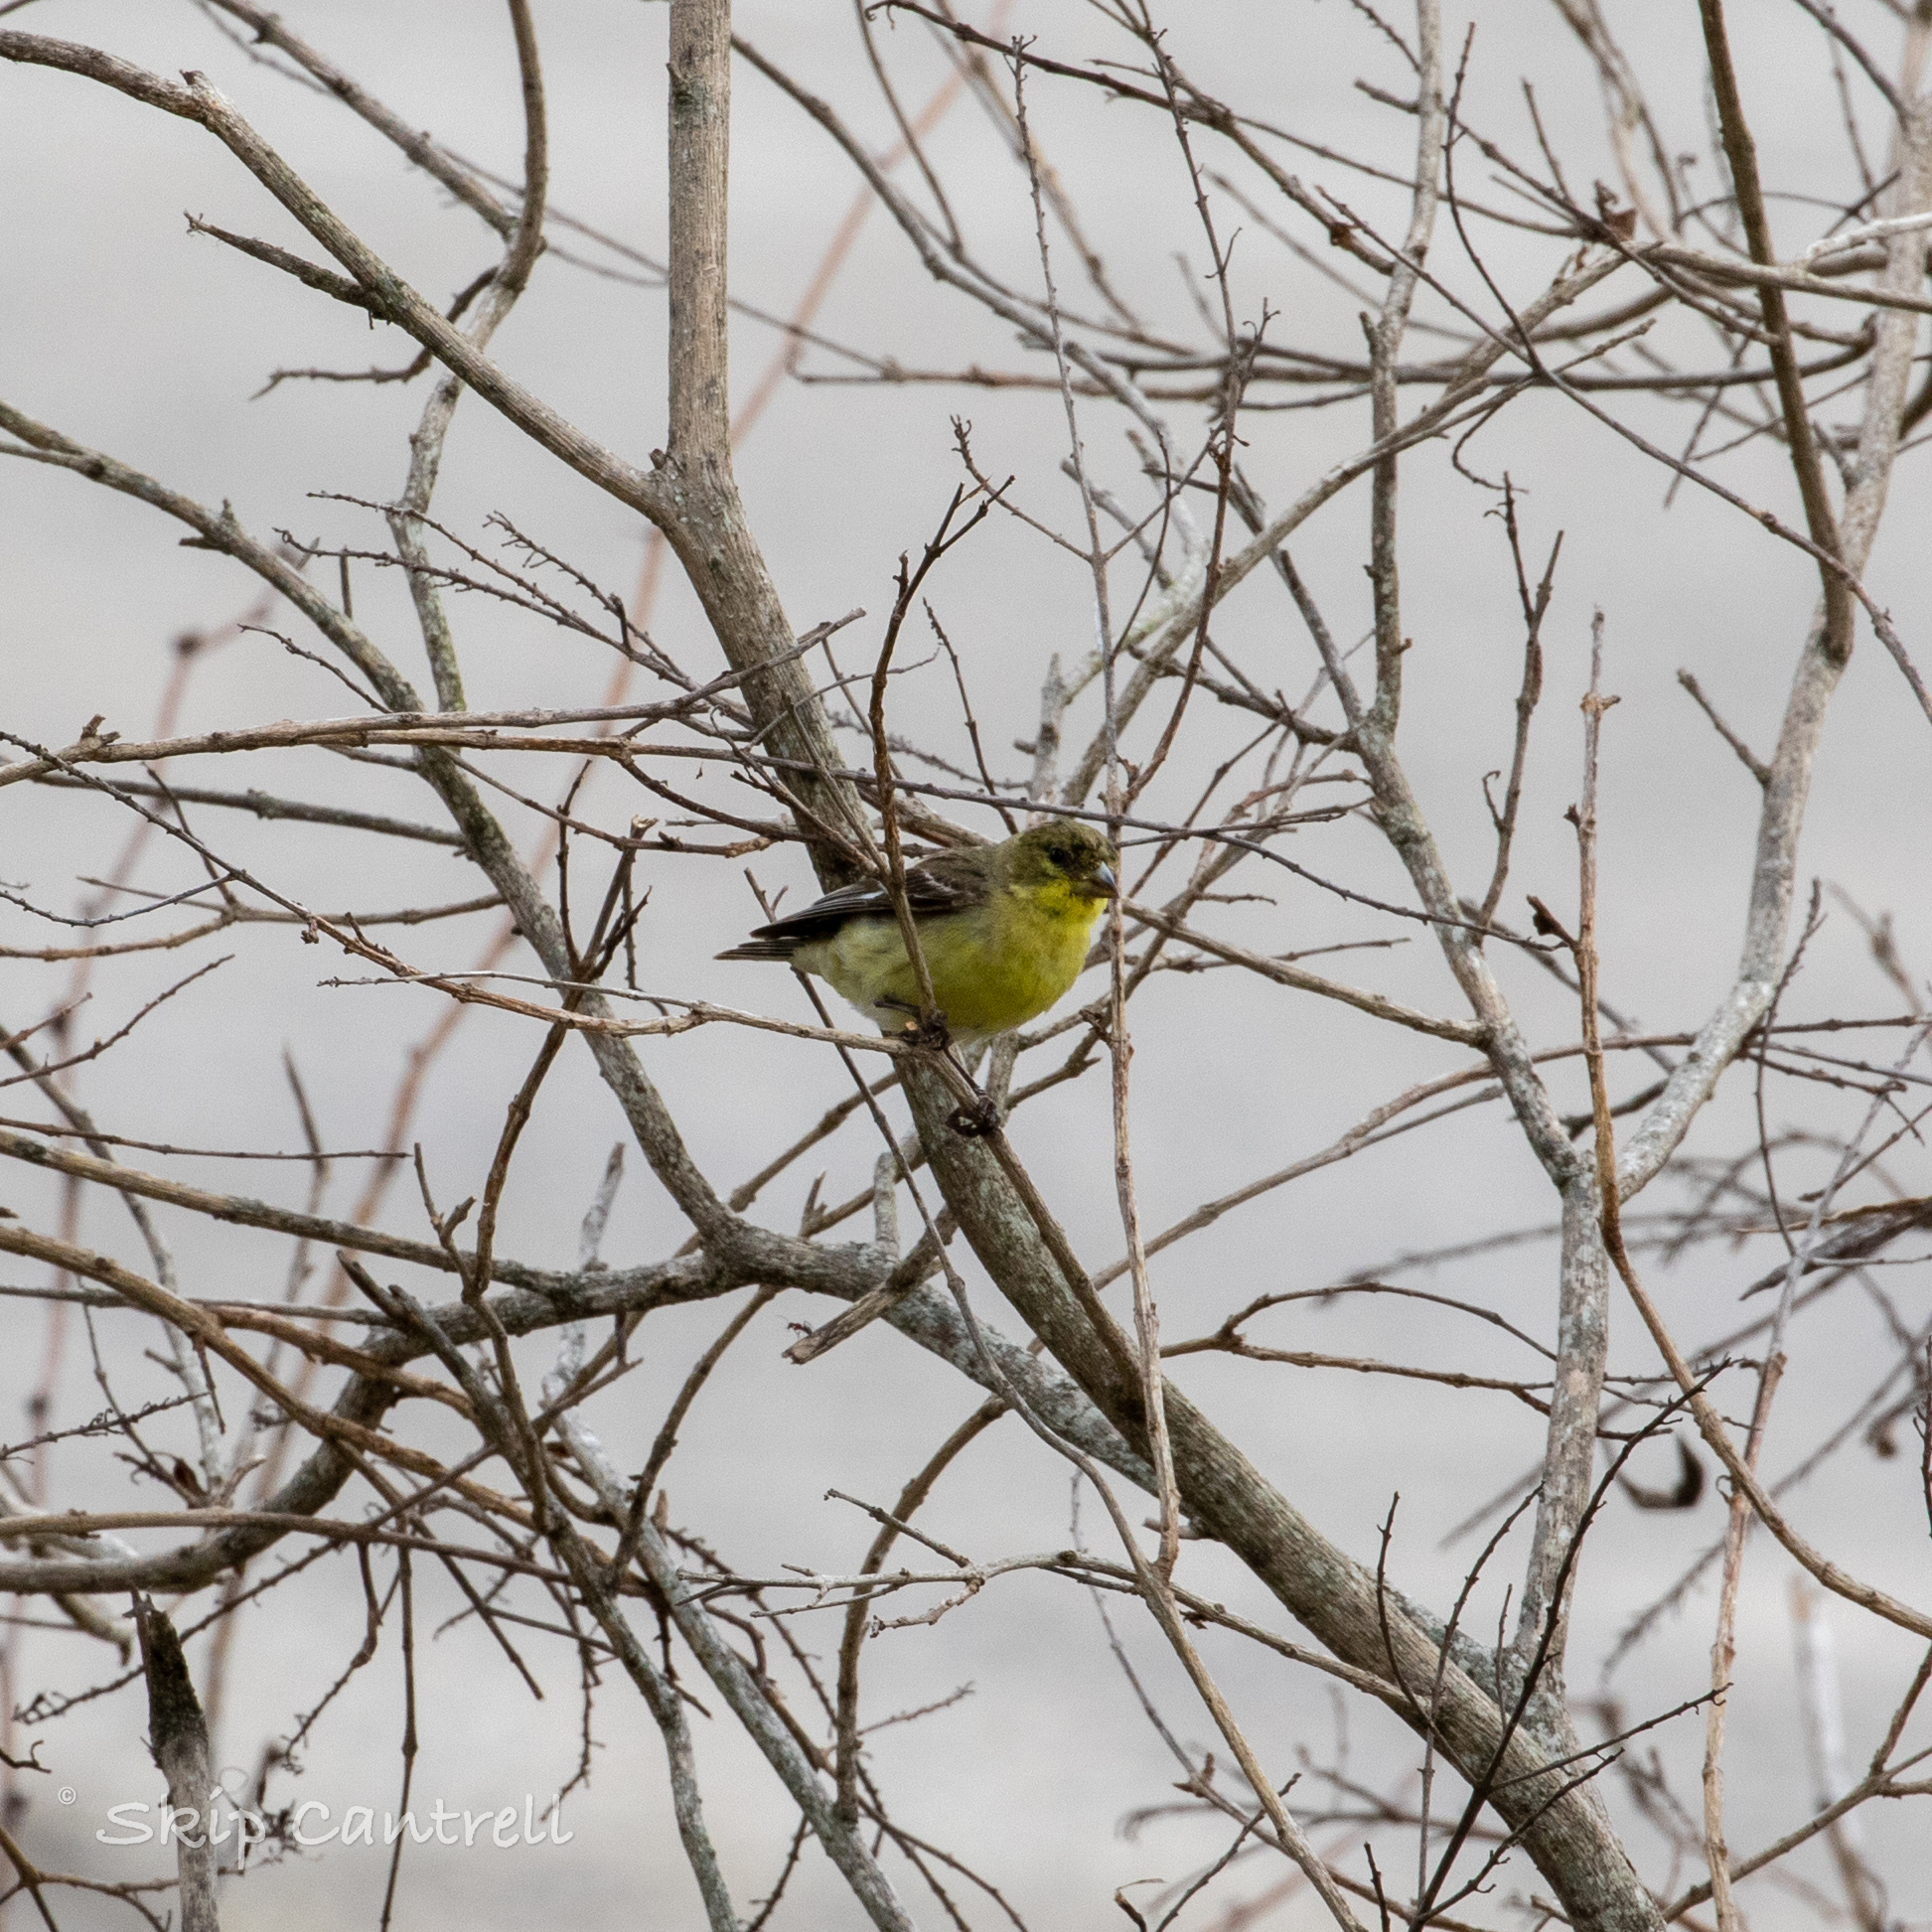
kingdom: Animalia
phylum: Chordata
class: Aves
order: Passeriformes
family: Fringillidae
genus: Spinus
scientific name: Spinus psaltria
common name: Lesser goldfinch
